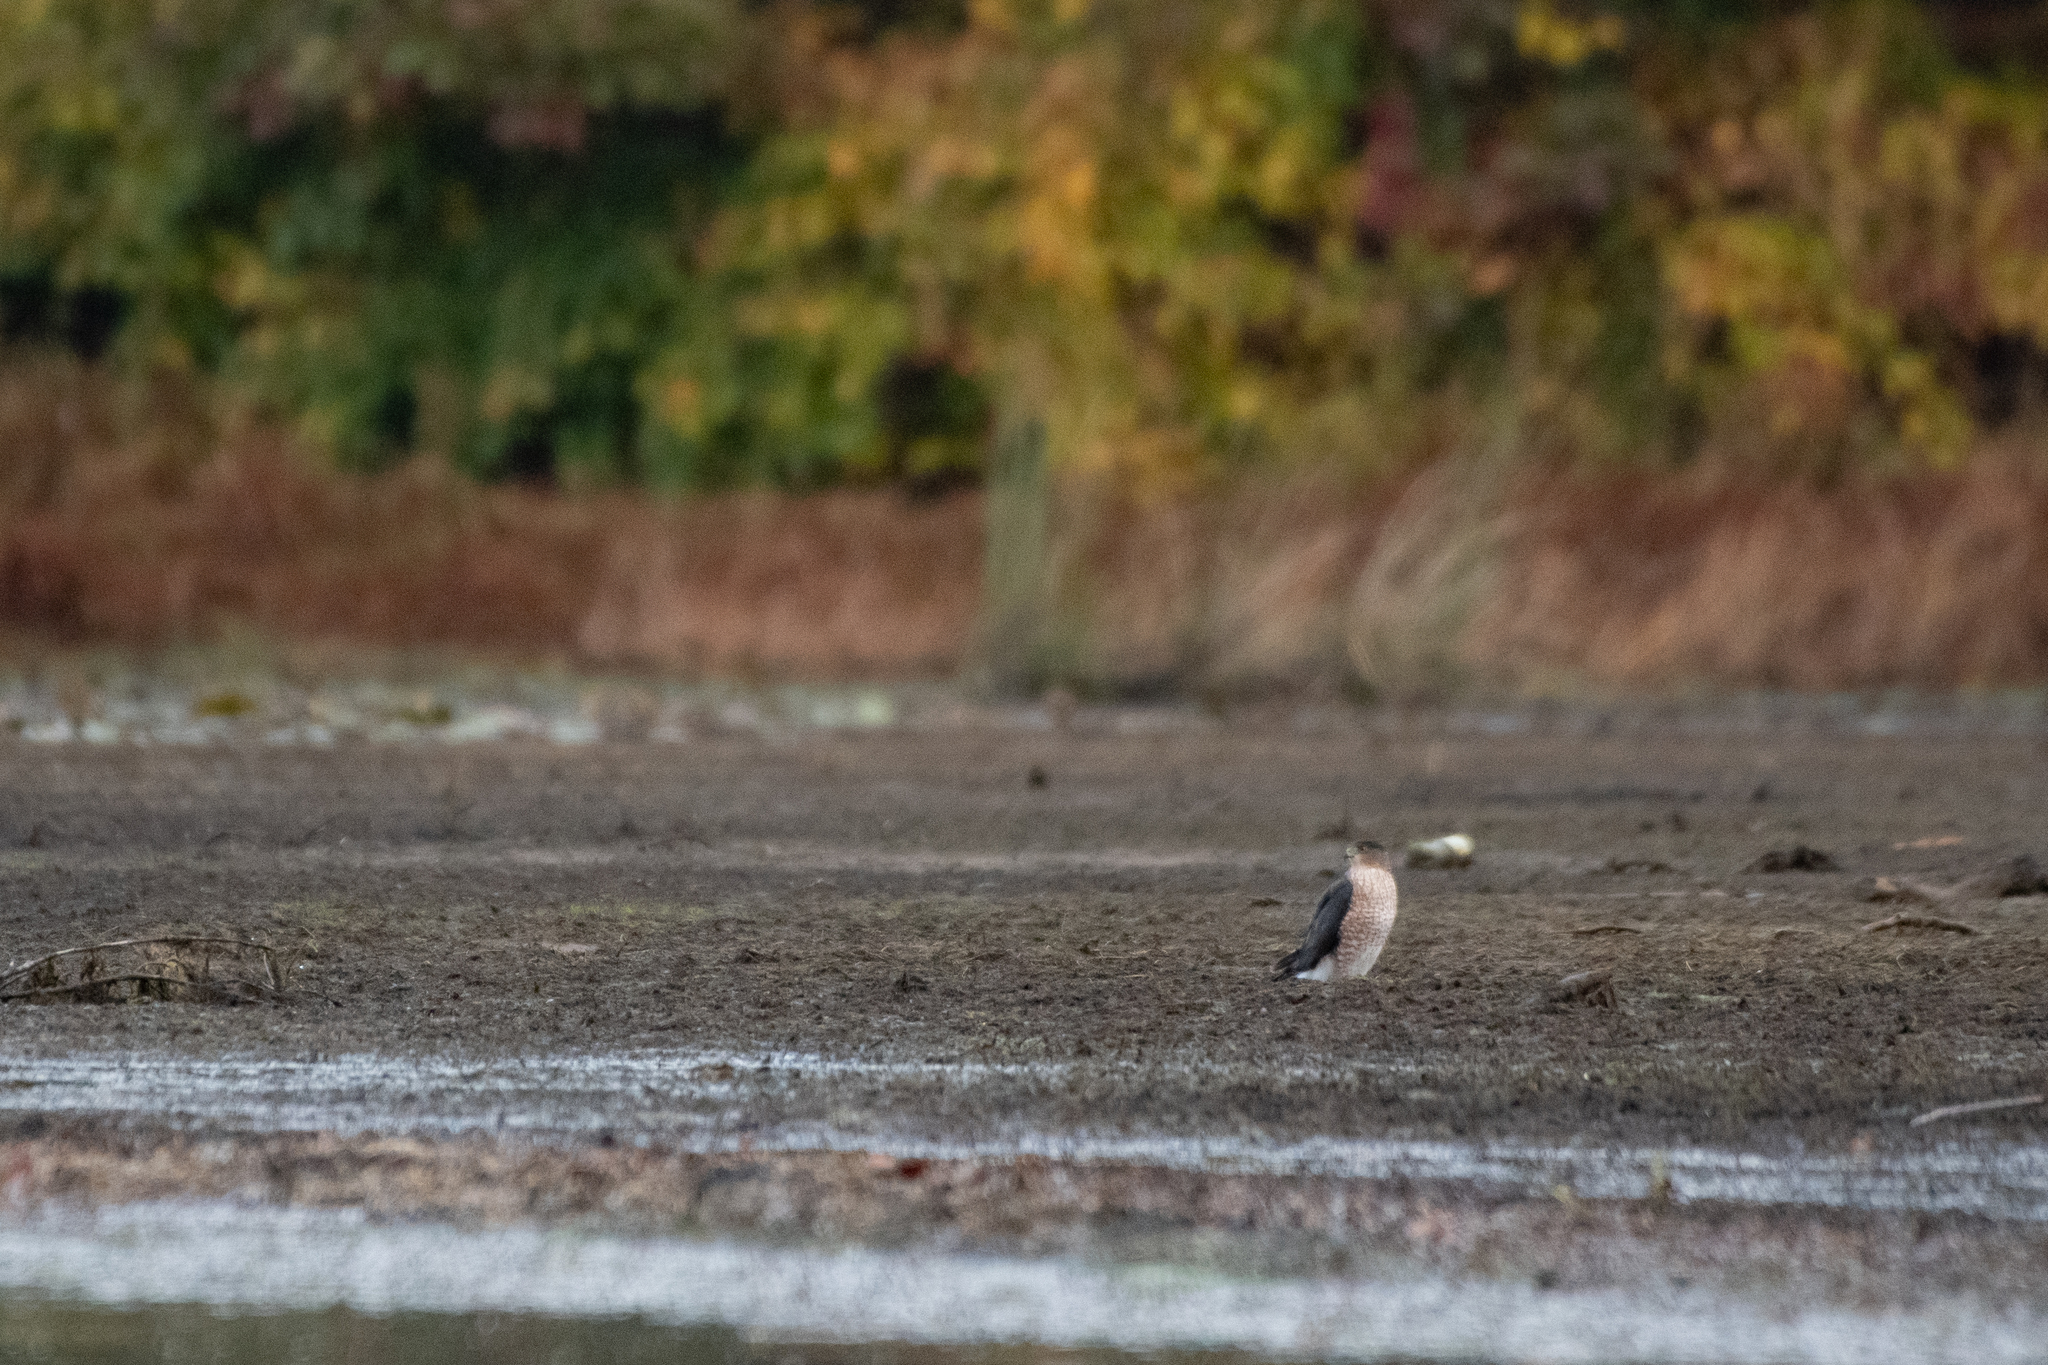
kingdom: Animalia
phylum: Chordata
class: Aves
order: Accipitriformes
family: Accipitridae
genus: Accipiter
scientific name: Accipiter cooperii
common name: Cooper's hawk
